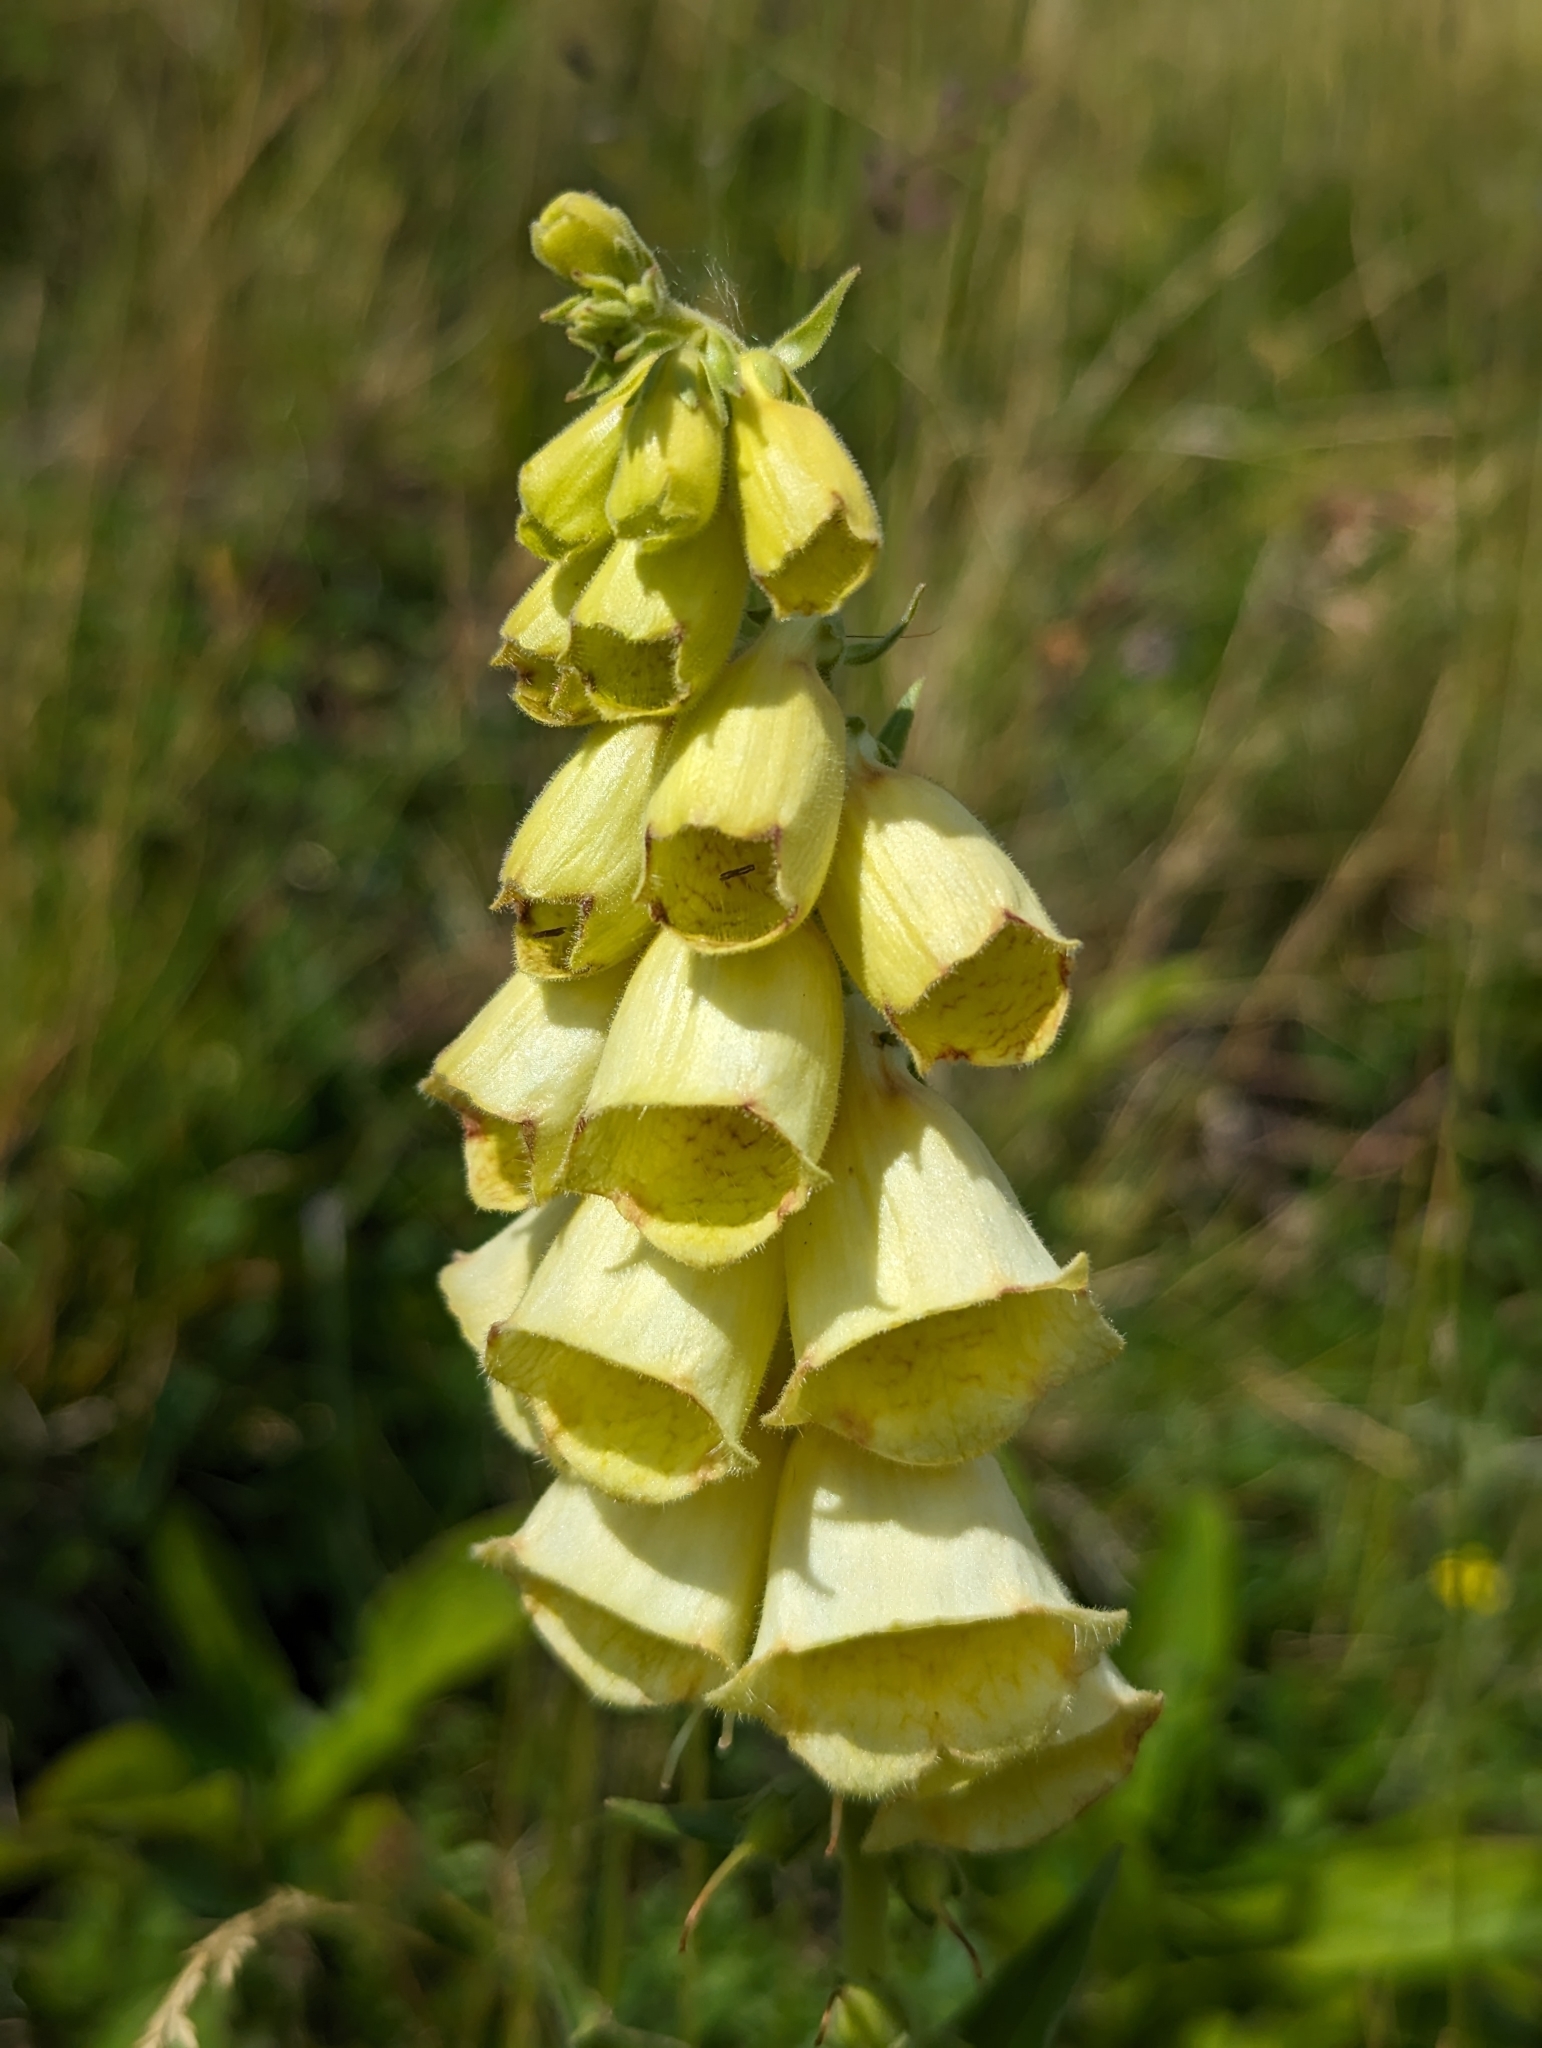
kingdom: Plantae
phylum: Tracheophyta
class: Magnoliopsida
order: Lamiales
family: Plantaginaceae
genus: Digitalis
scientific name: Digitalis grandiflora
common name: Yellow foxglove
